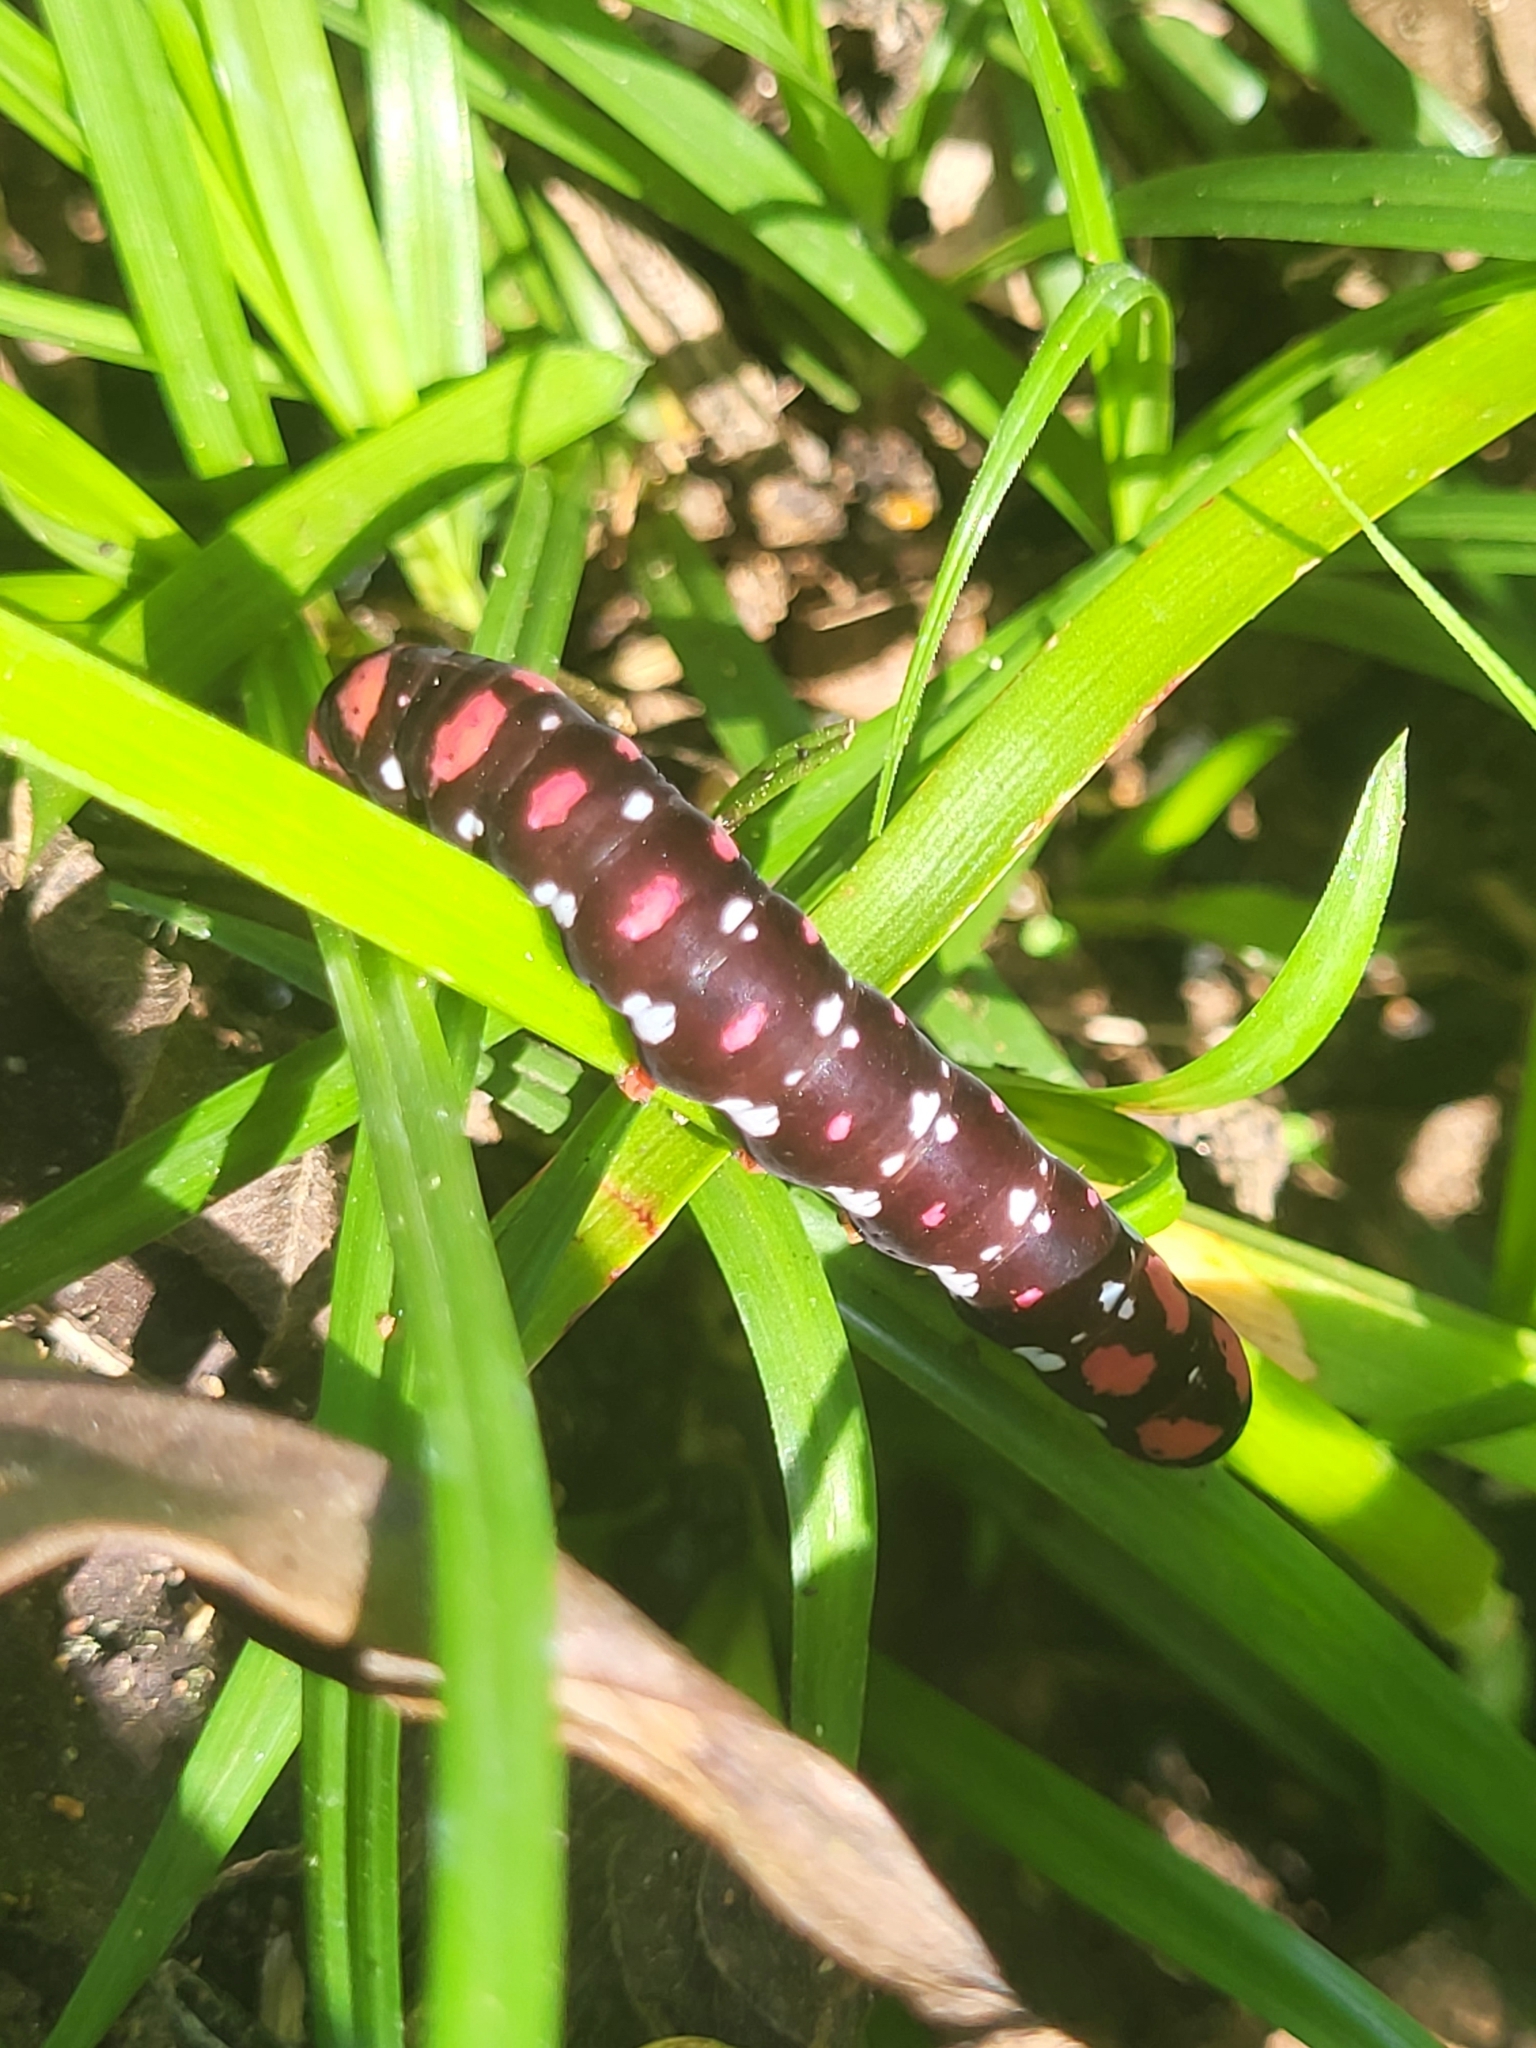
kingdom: Animalia
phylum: Arthropoda
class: Insecta
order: Lepidoptera
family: Noctuidae
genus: Polytela
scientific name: Polytela gloriosae
